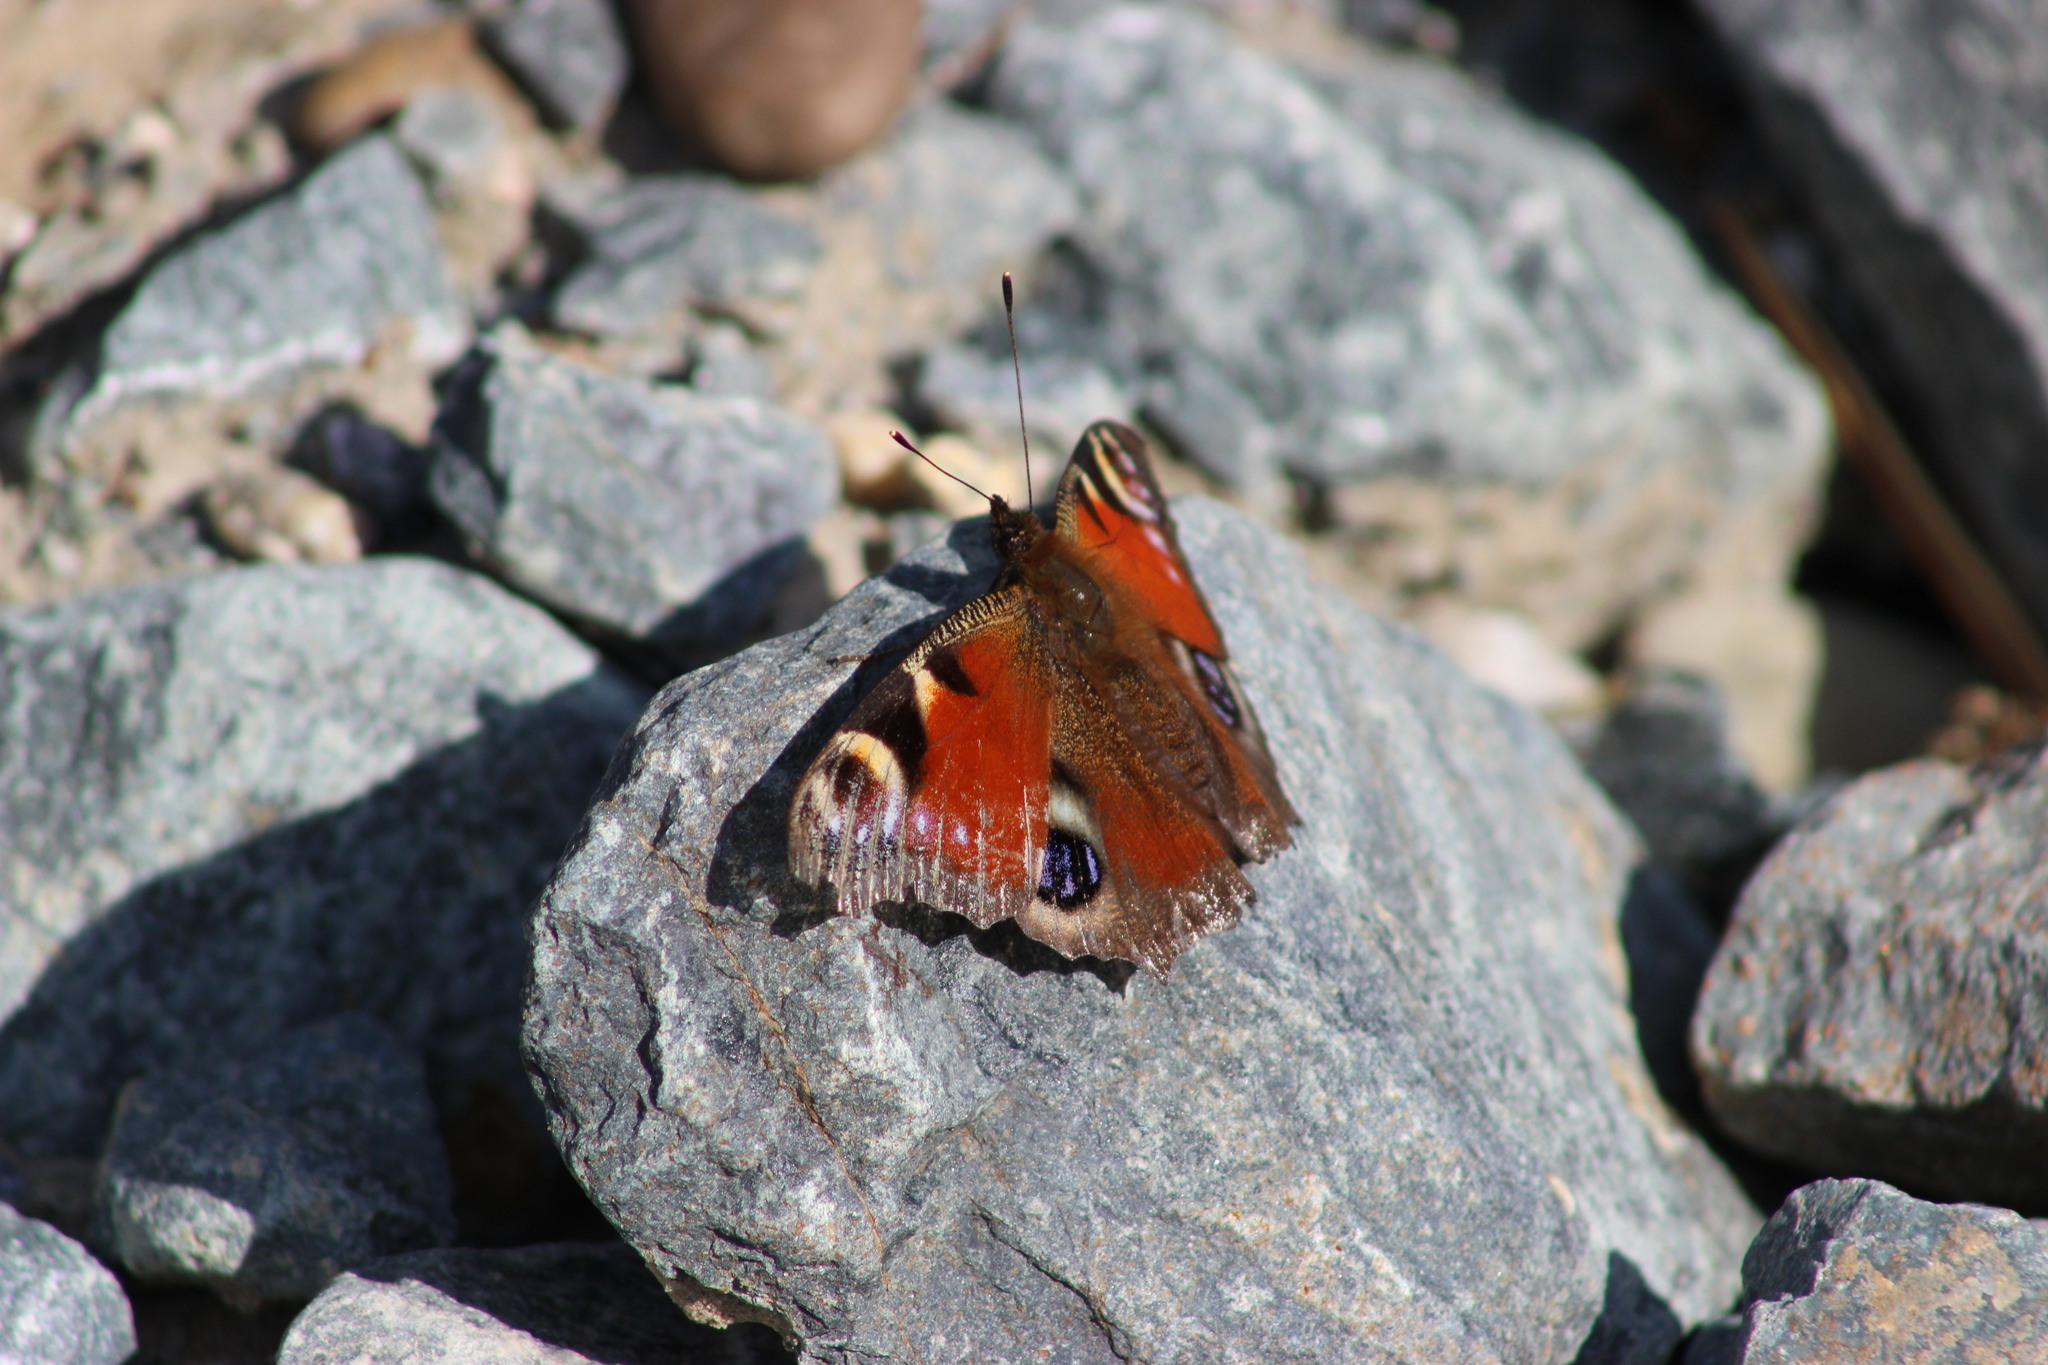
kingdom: Animalia
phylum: Arthropoda
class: Insecta
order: Lepidoptera
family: Nymphalidae
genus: Aglais
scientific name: Aglais io
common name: Peacock
